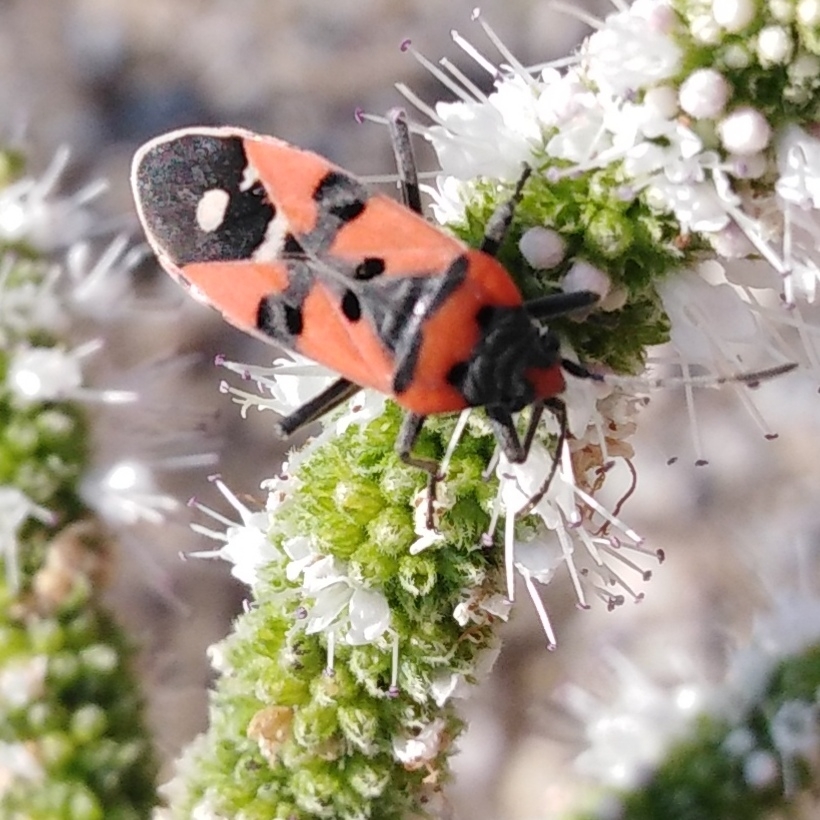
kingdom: Animalia
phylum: Arthropoda
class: Insecta
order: Hemiptera
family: Lygaeidae
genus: Lygaeus
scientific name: Lygaeus equestris
